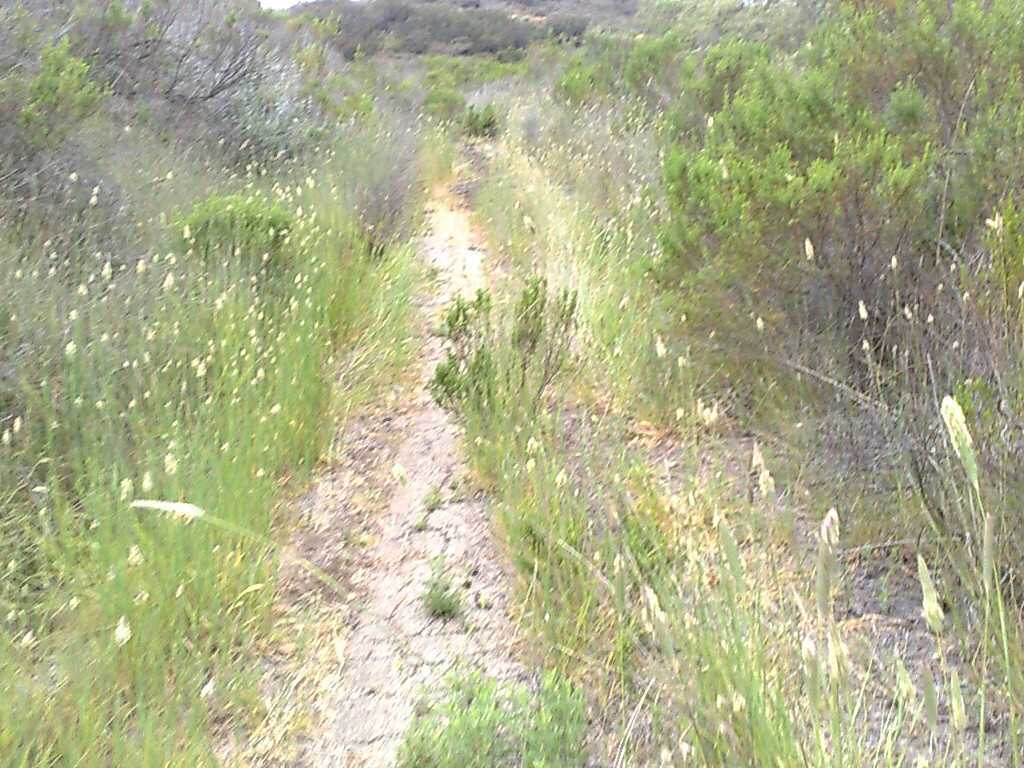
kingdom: Plantae
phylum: Tracheophyta
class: Liliopsida
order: Poales
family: Poaceae
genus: Phalaris
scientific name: Phalaris aquatica
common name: Bulbous canary-grass
